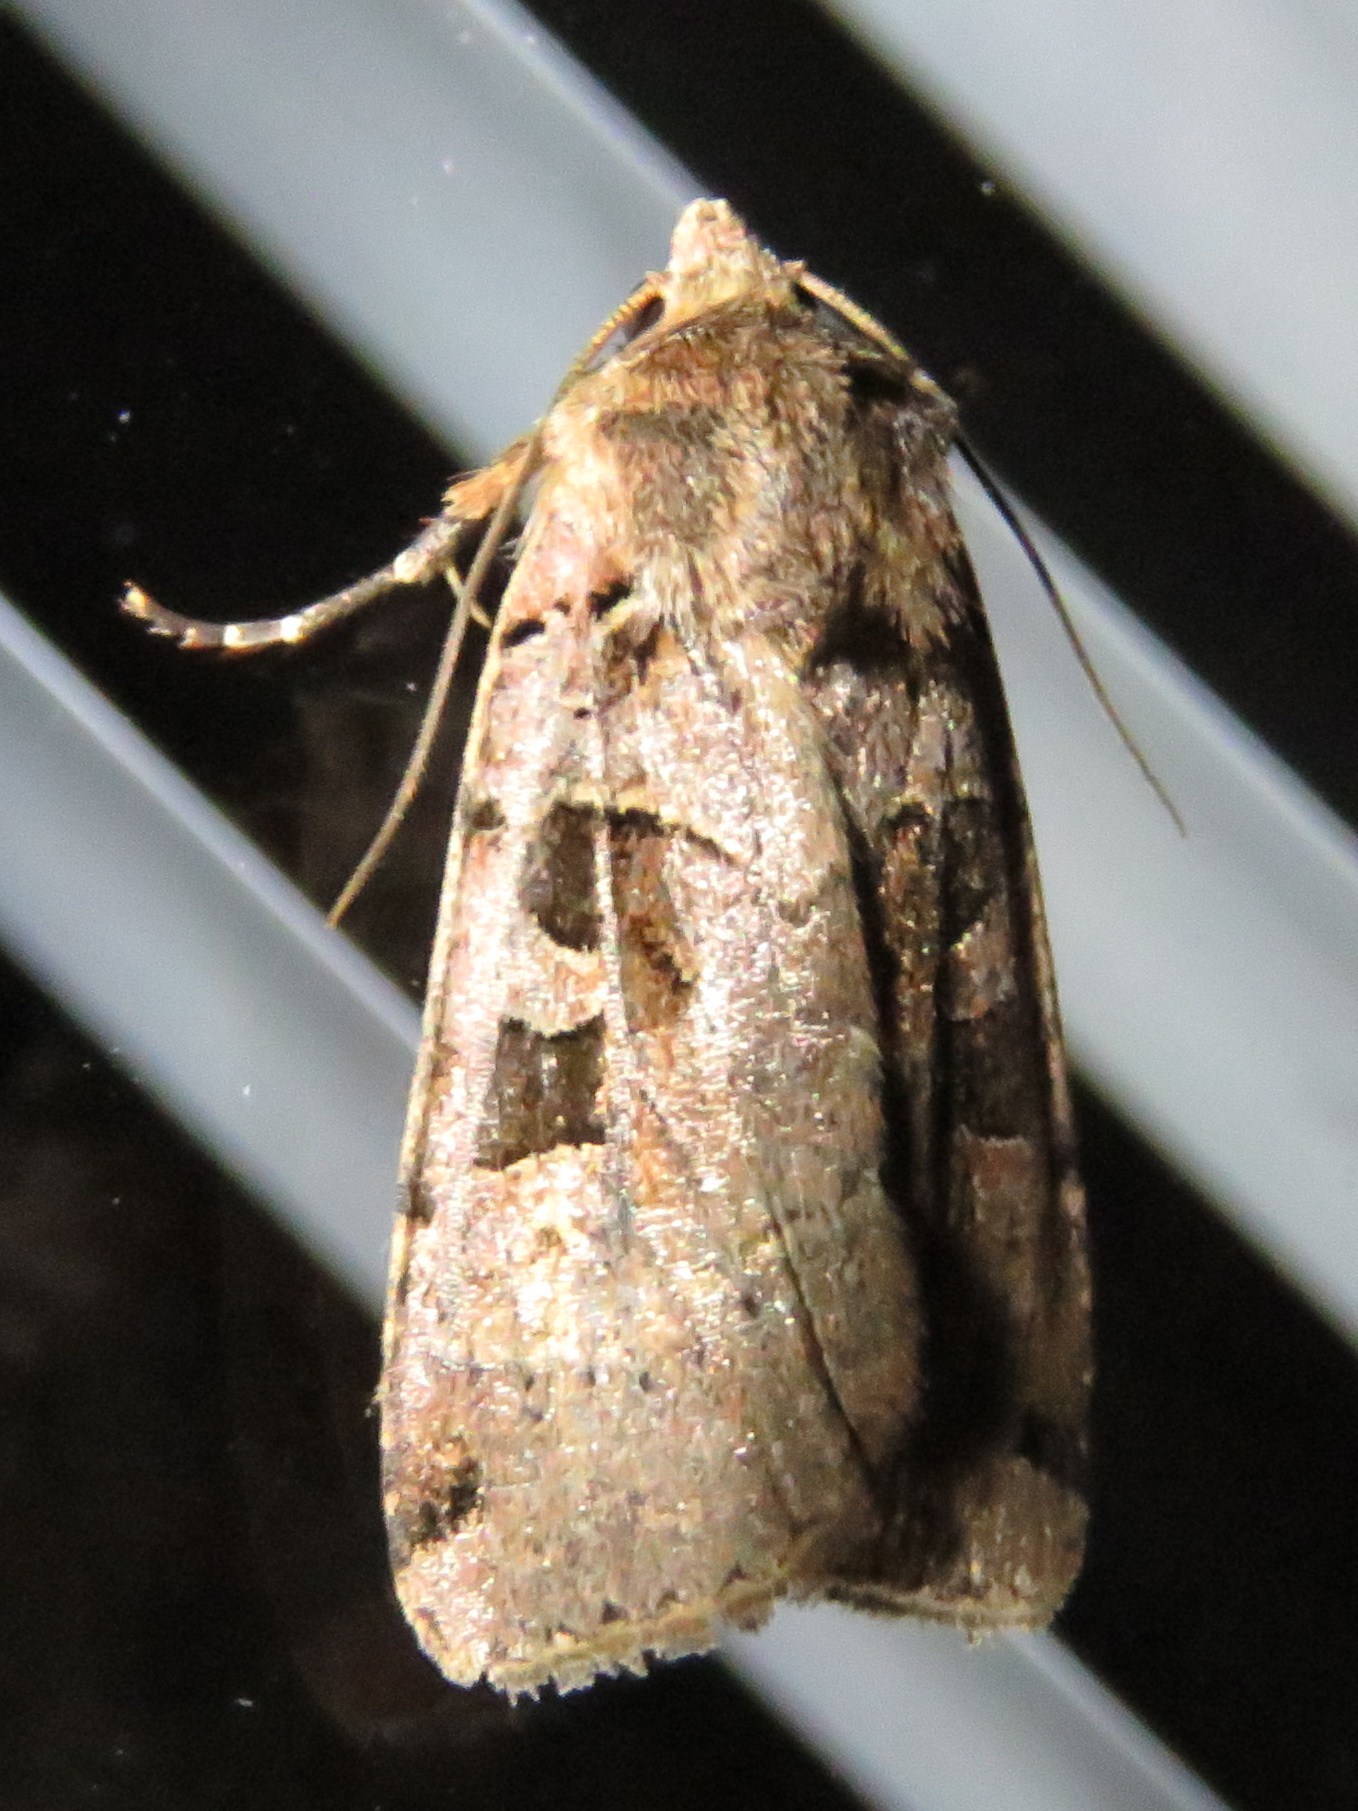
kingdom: Animalia
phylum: Arthropoda
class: Insecta
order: Lepidoptera
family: Noctuidae
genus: Xestia
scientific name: Xestia triangulum
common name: Double square-spot
